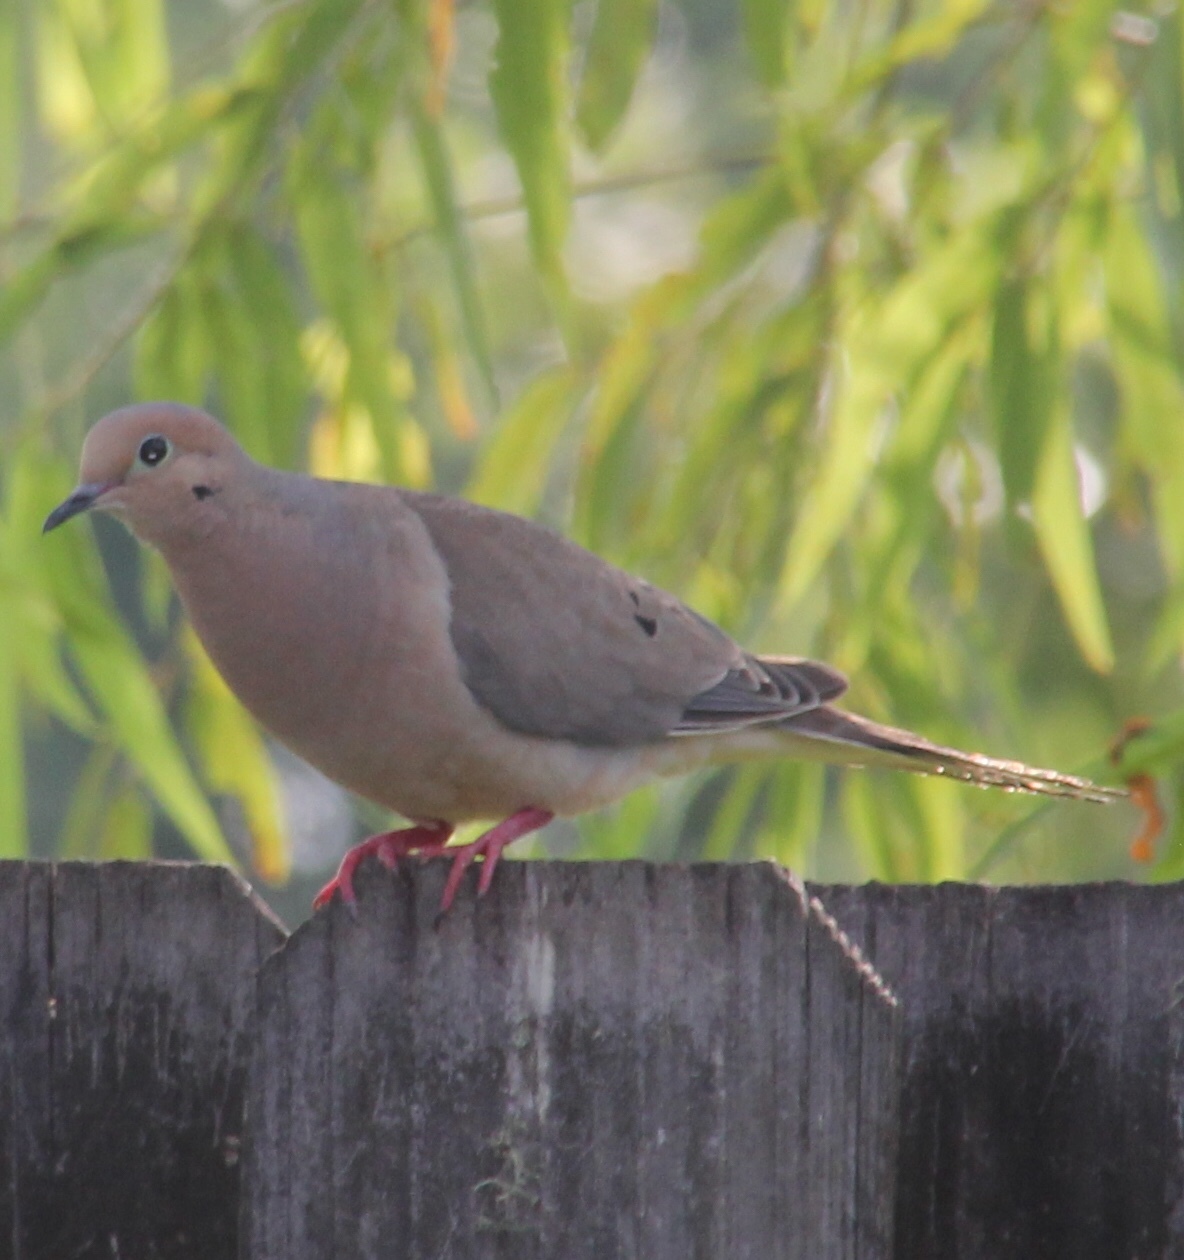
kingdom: Animalia
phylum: Chordata
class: Aves
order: Columbiformes
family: Columbidae
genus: Zenaida
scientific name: Zenaida macroura
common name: Mourning dove
